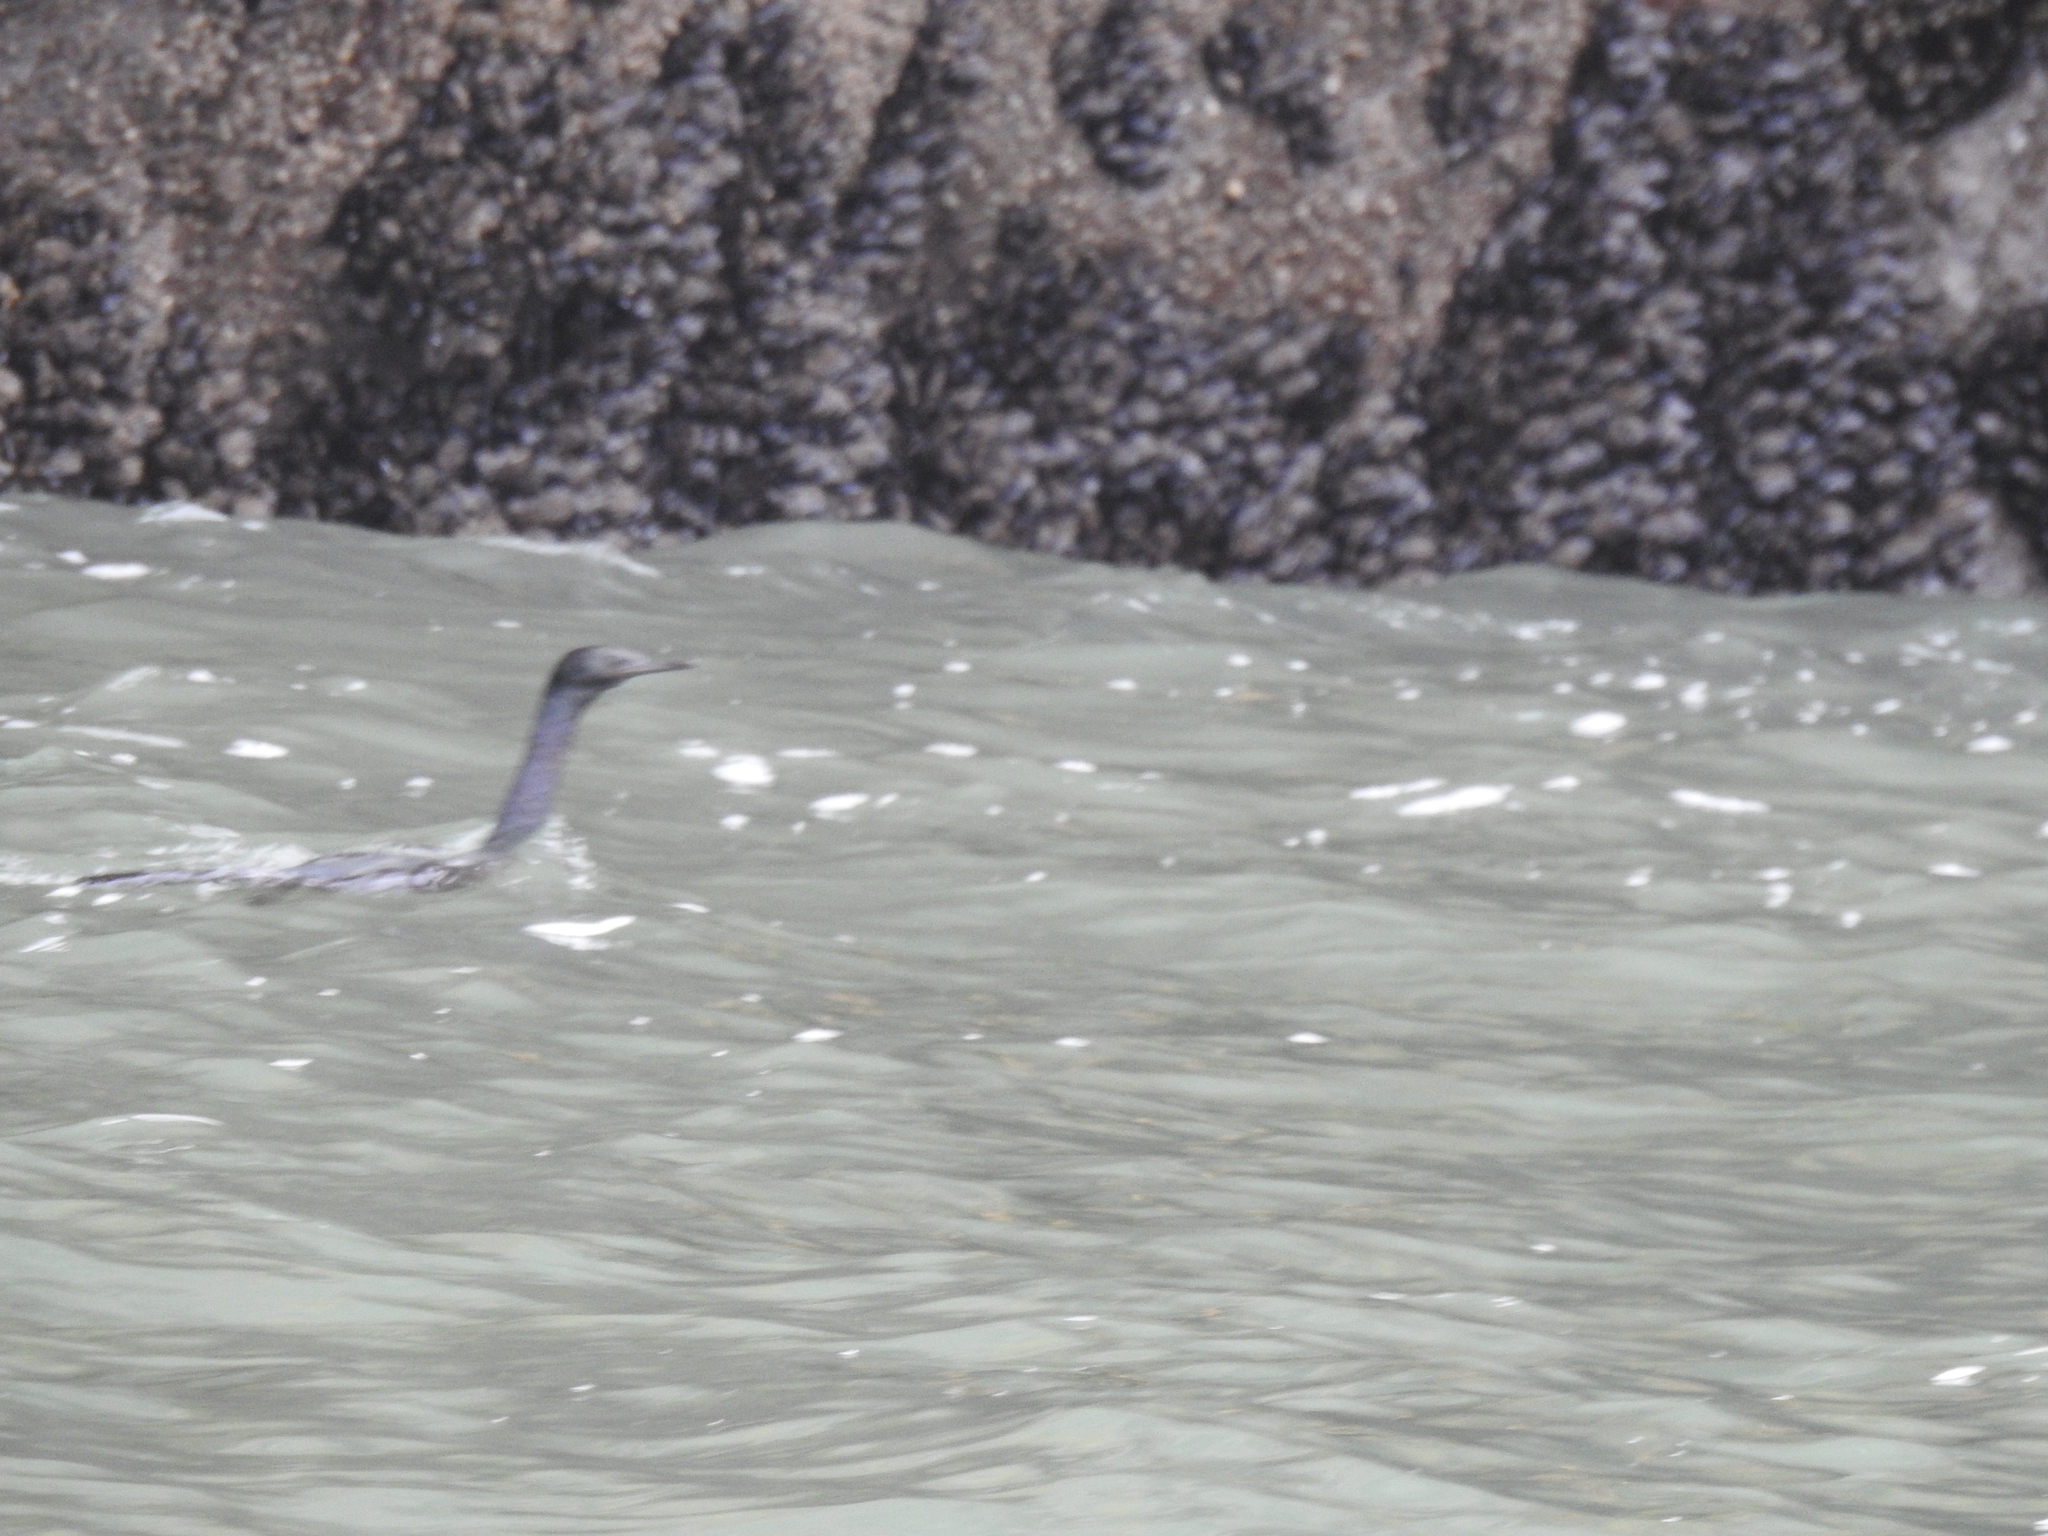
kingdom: Animalia
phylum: Chordata
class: Aves
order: Suliformes
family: Phalacrocoracidae
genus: Phalacrocorax
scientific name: Phalacrocorax pelagicus
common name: Pelagic cormorant
